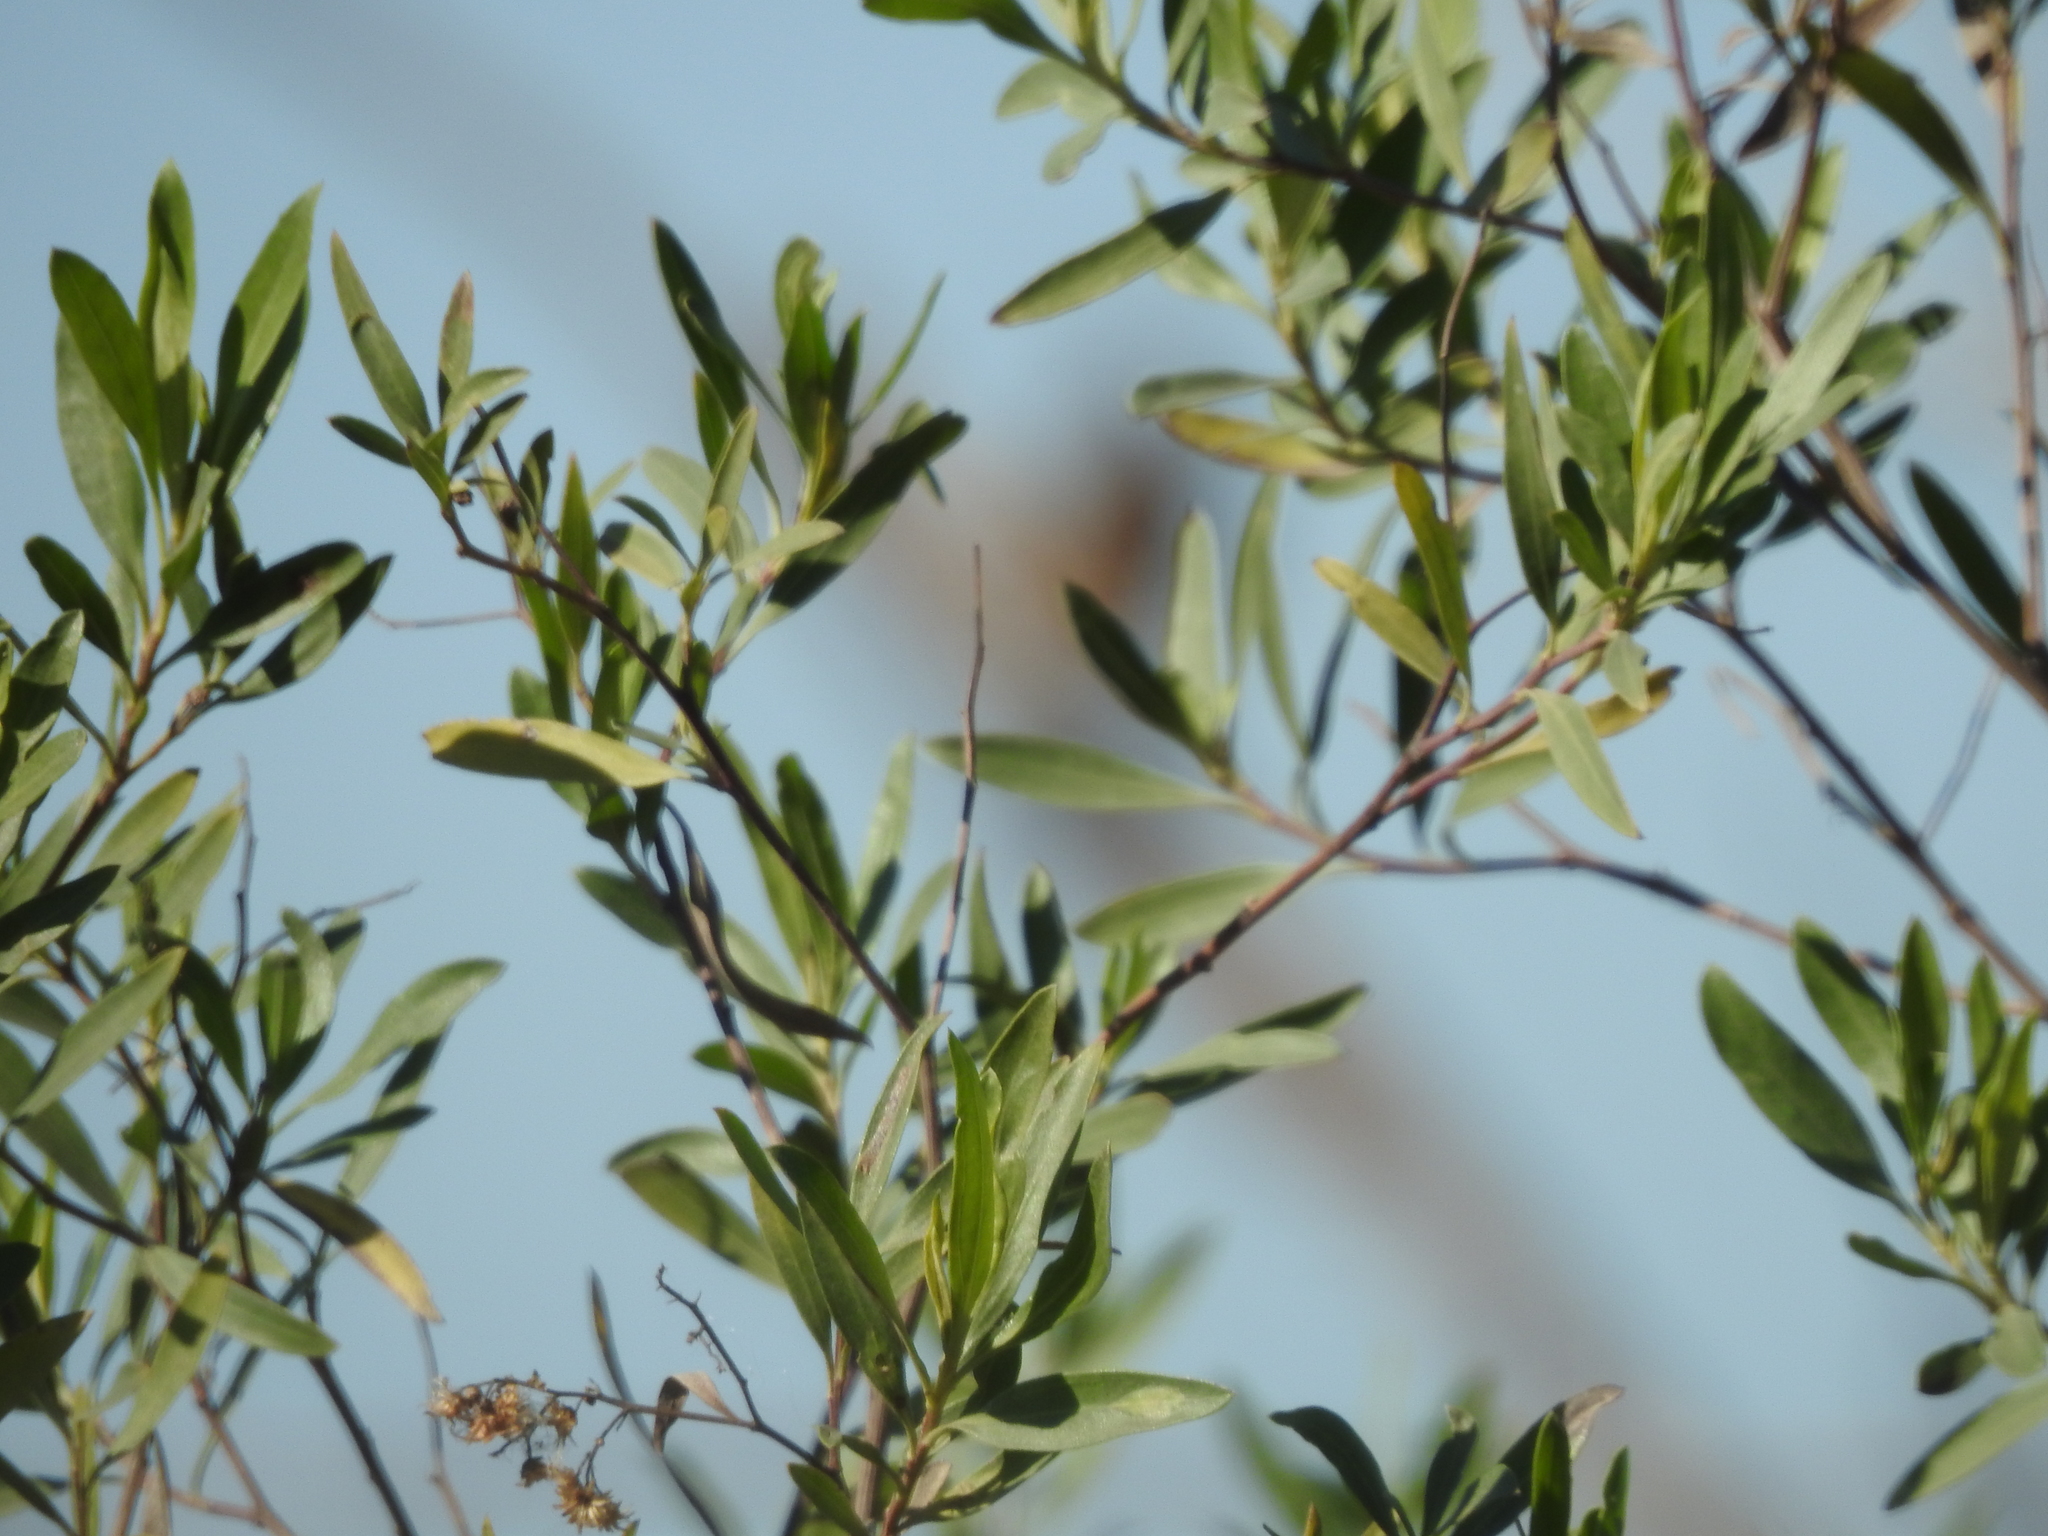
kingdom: Plantae
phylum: Tracheophyta
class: Magnoliopsida
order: Asterales
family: Asteraceae
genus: Tessaria
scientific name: Tessaria integrifolia
